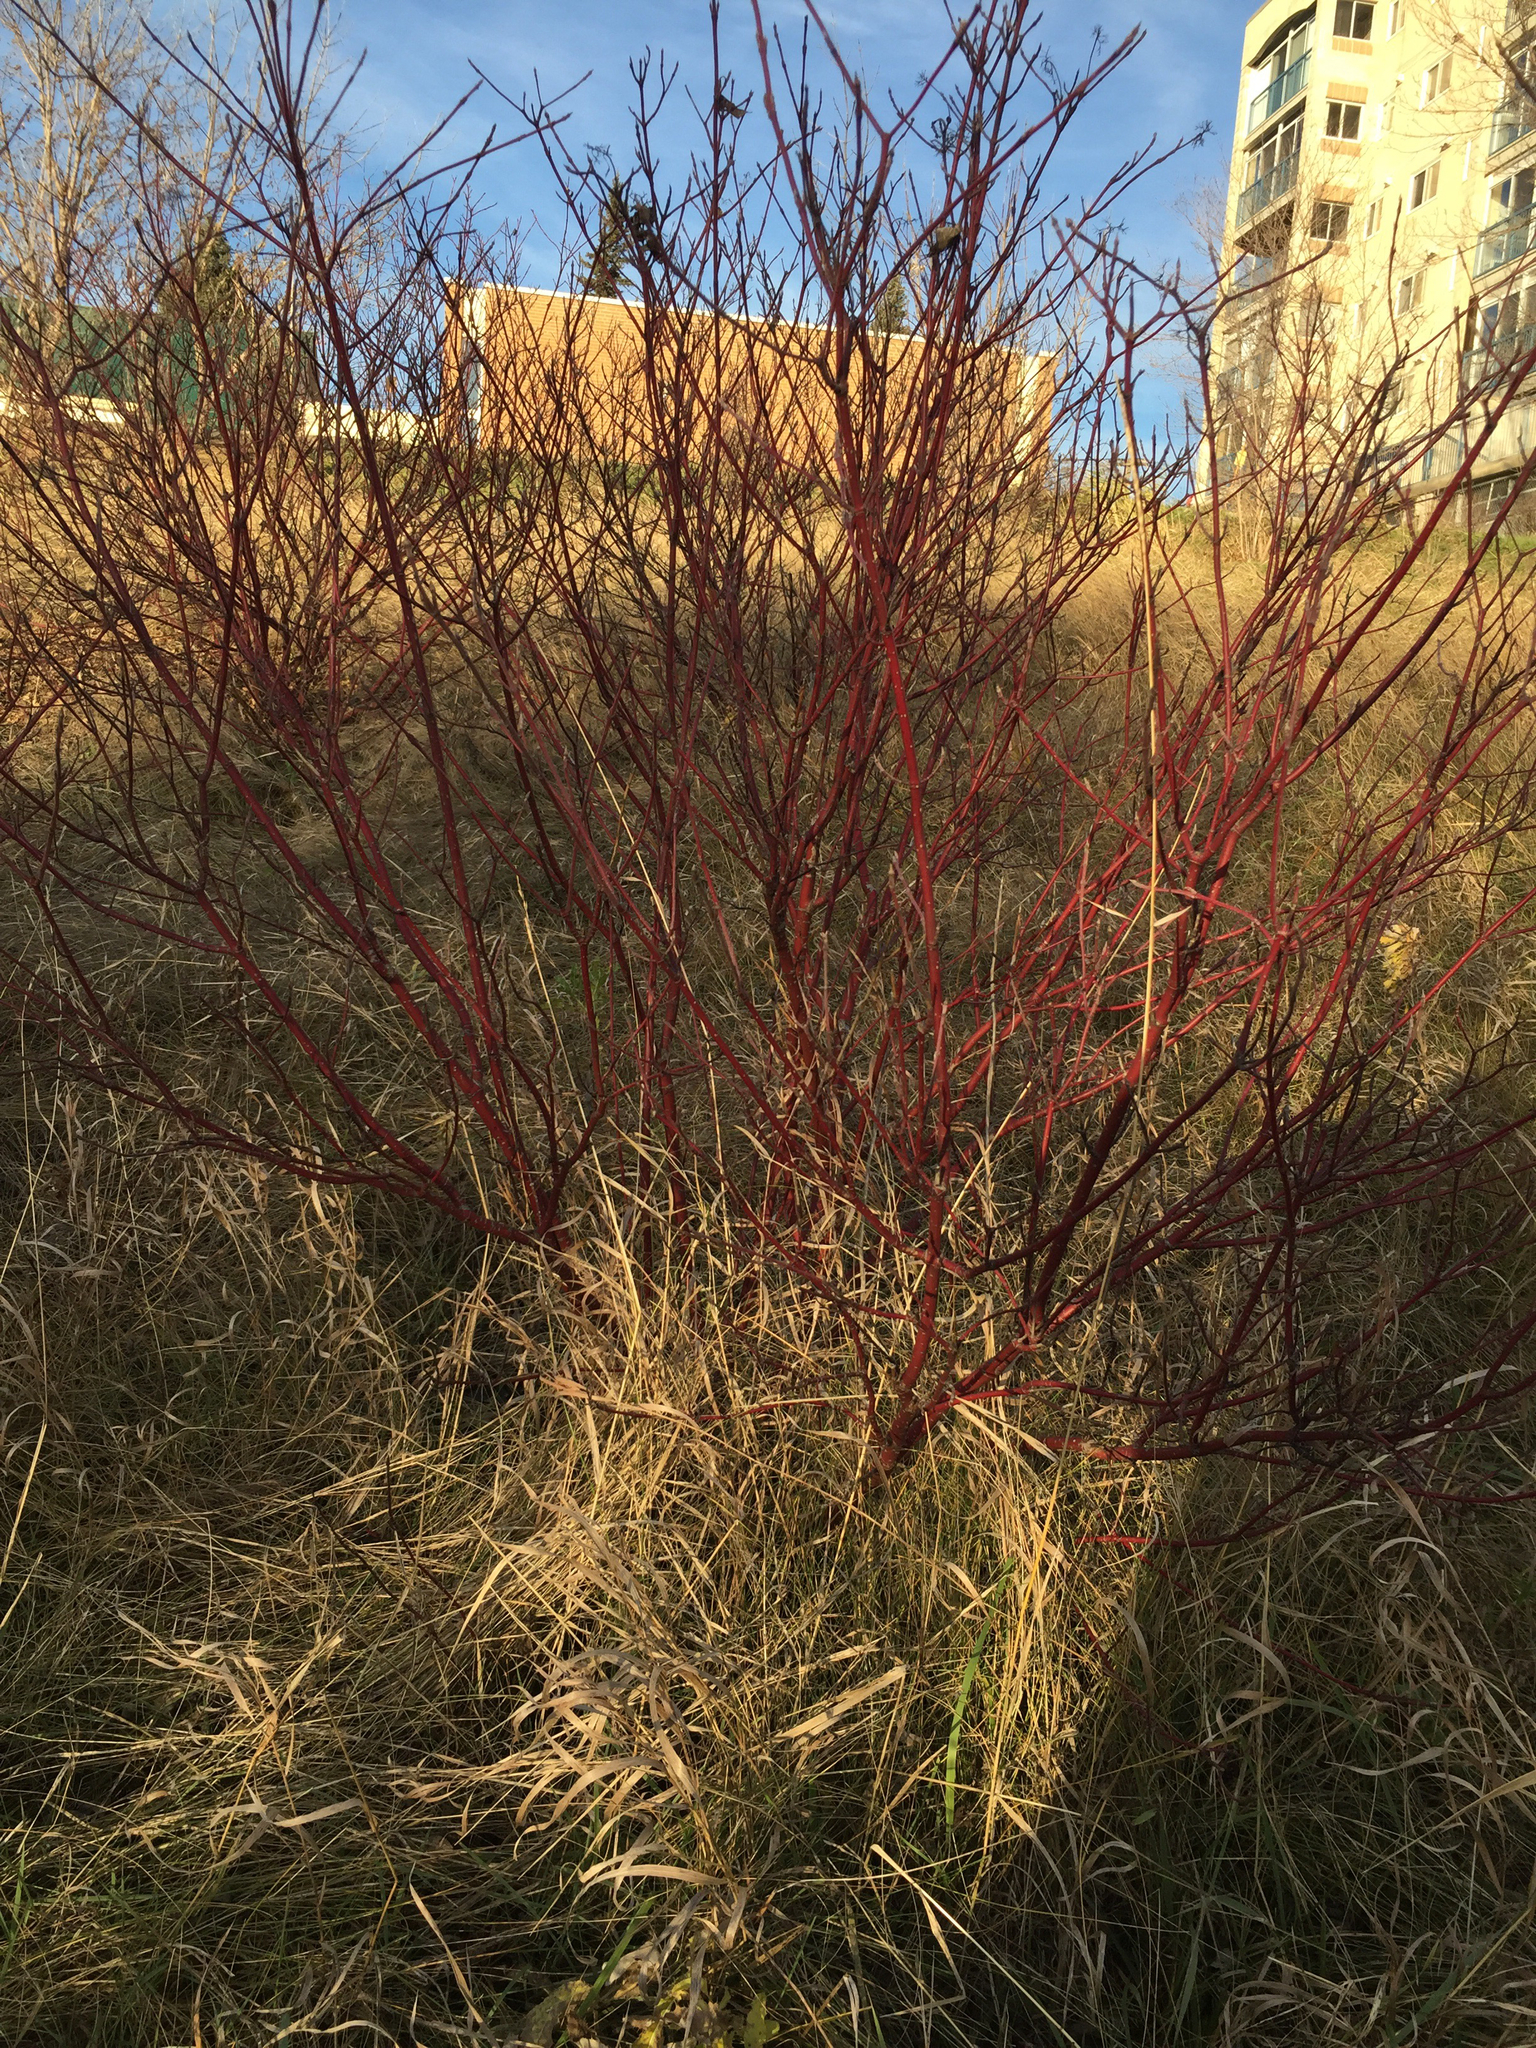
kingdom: Plantae
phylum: Tracheophyta
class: Magnoliopsida
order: Cornales
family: Cornaceae
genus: Cornus
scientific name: Cornus sericea
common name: Red-osier dogwood
